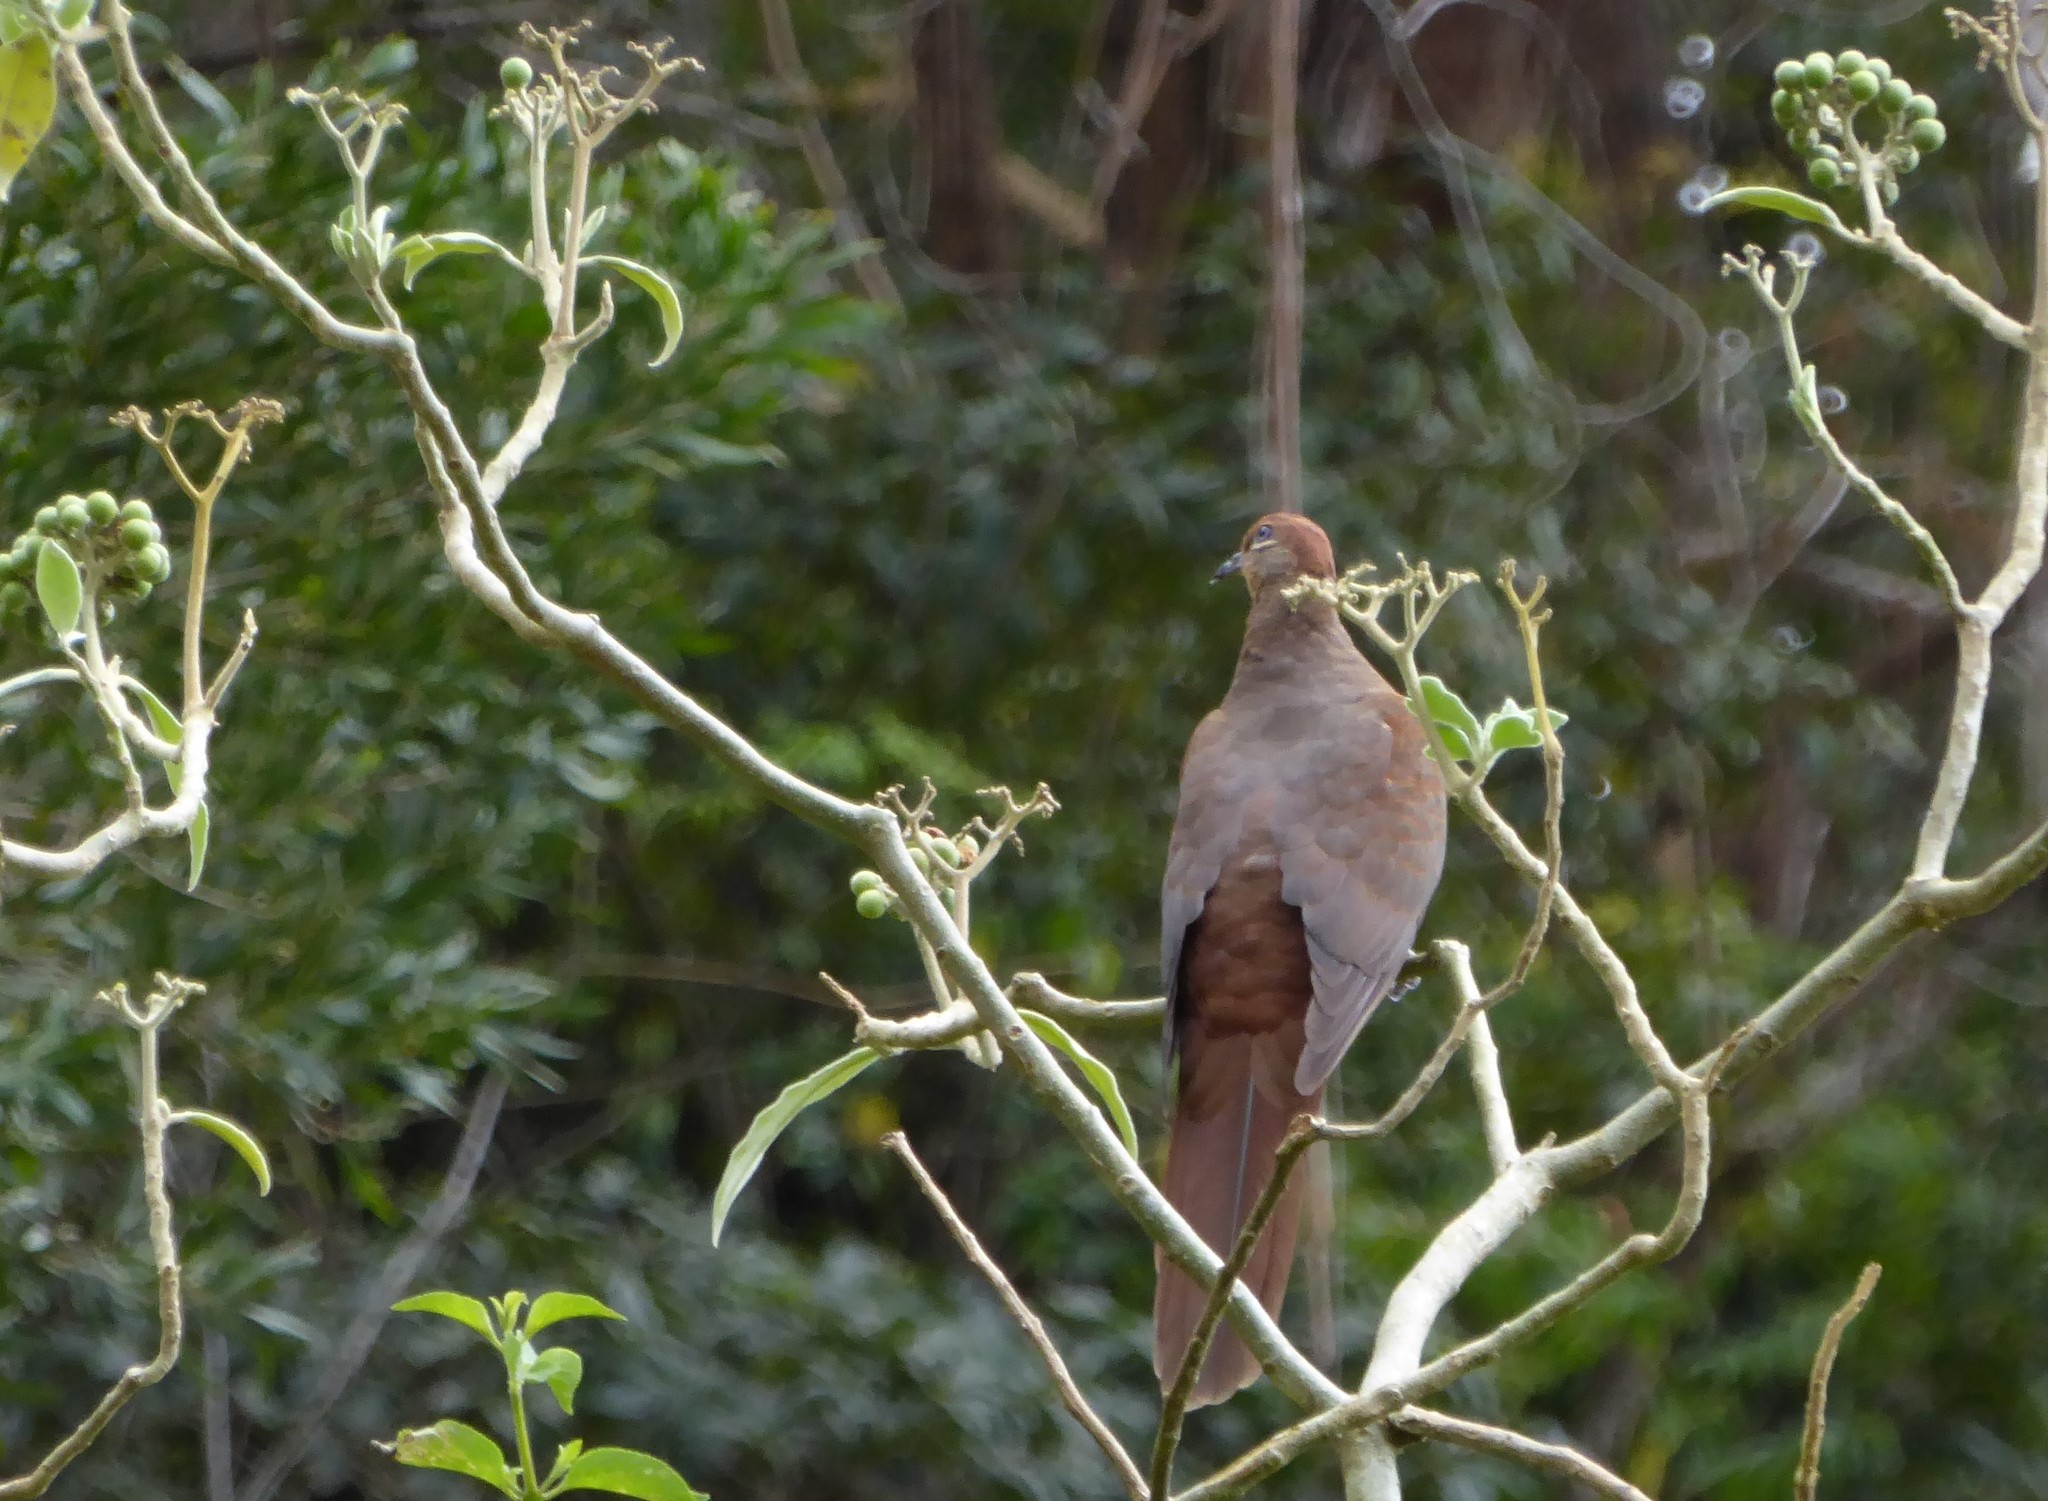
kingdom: Animalia
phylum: Chordata
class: Aves
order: Columbiformes
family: Columbidae
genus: Macropygia
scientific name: Macropygia phasianella
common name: Brown cuckoo-dove
